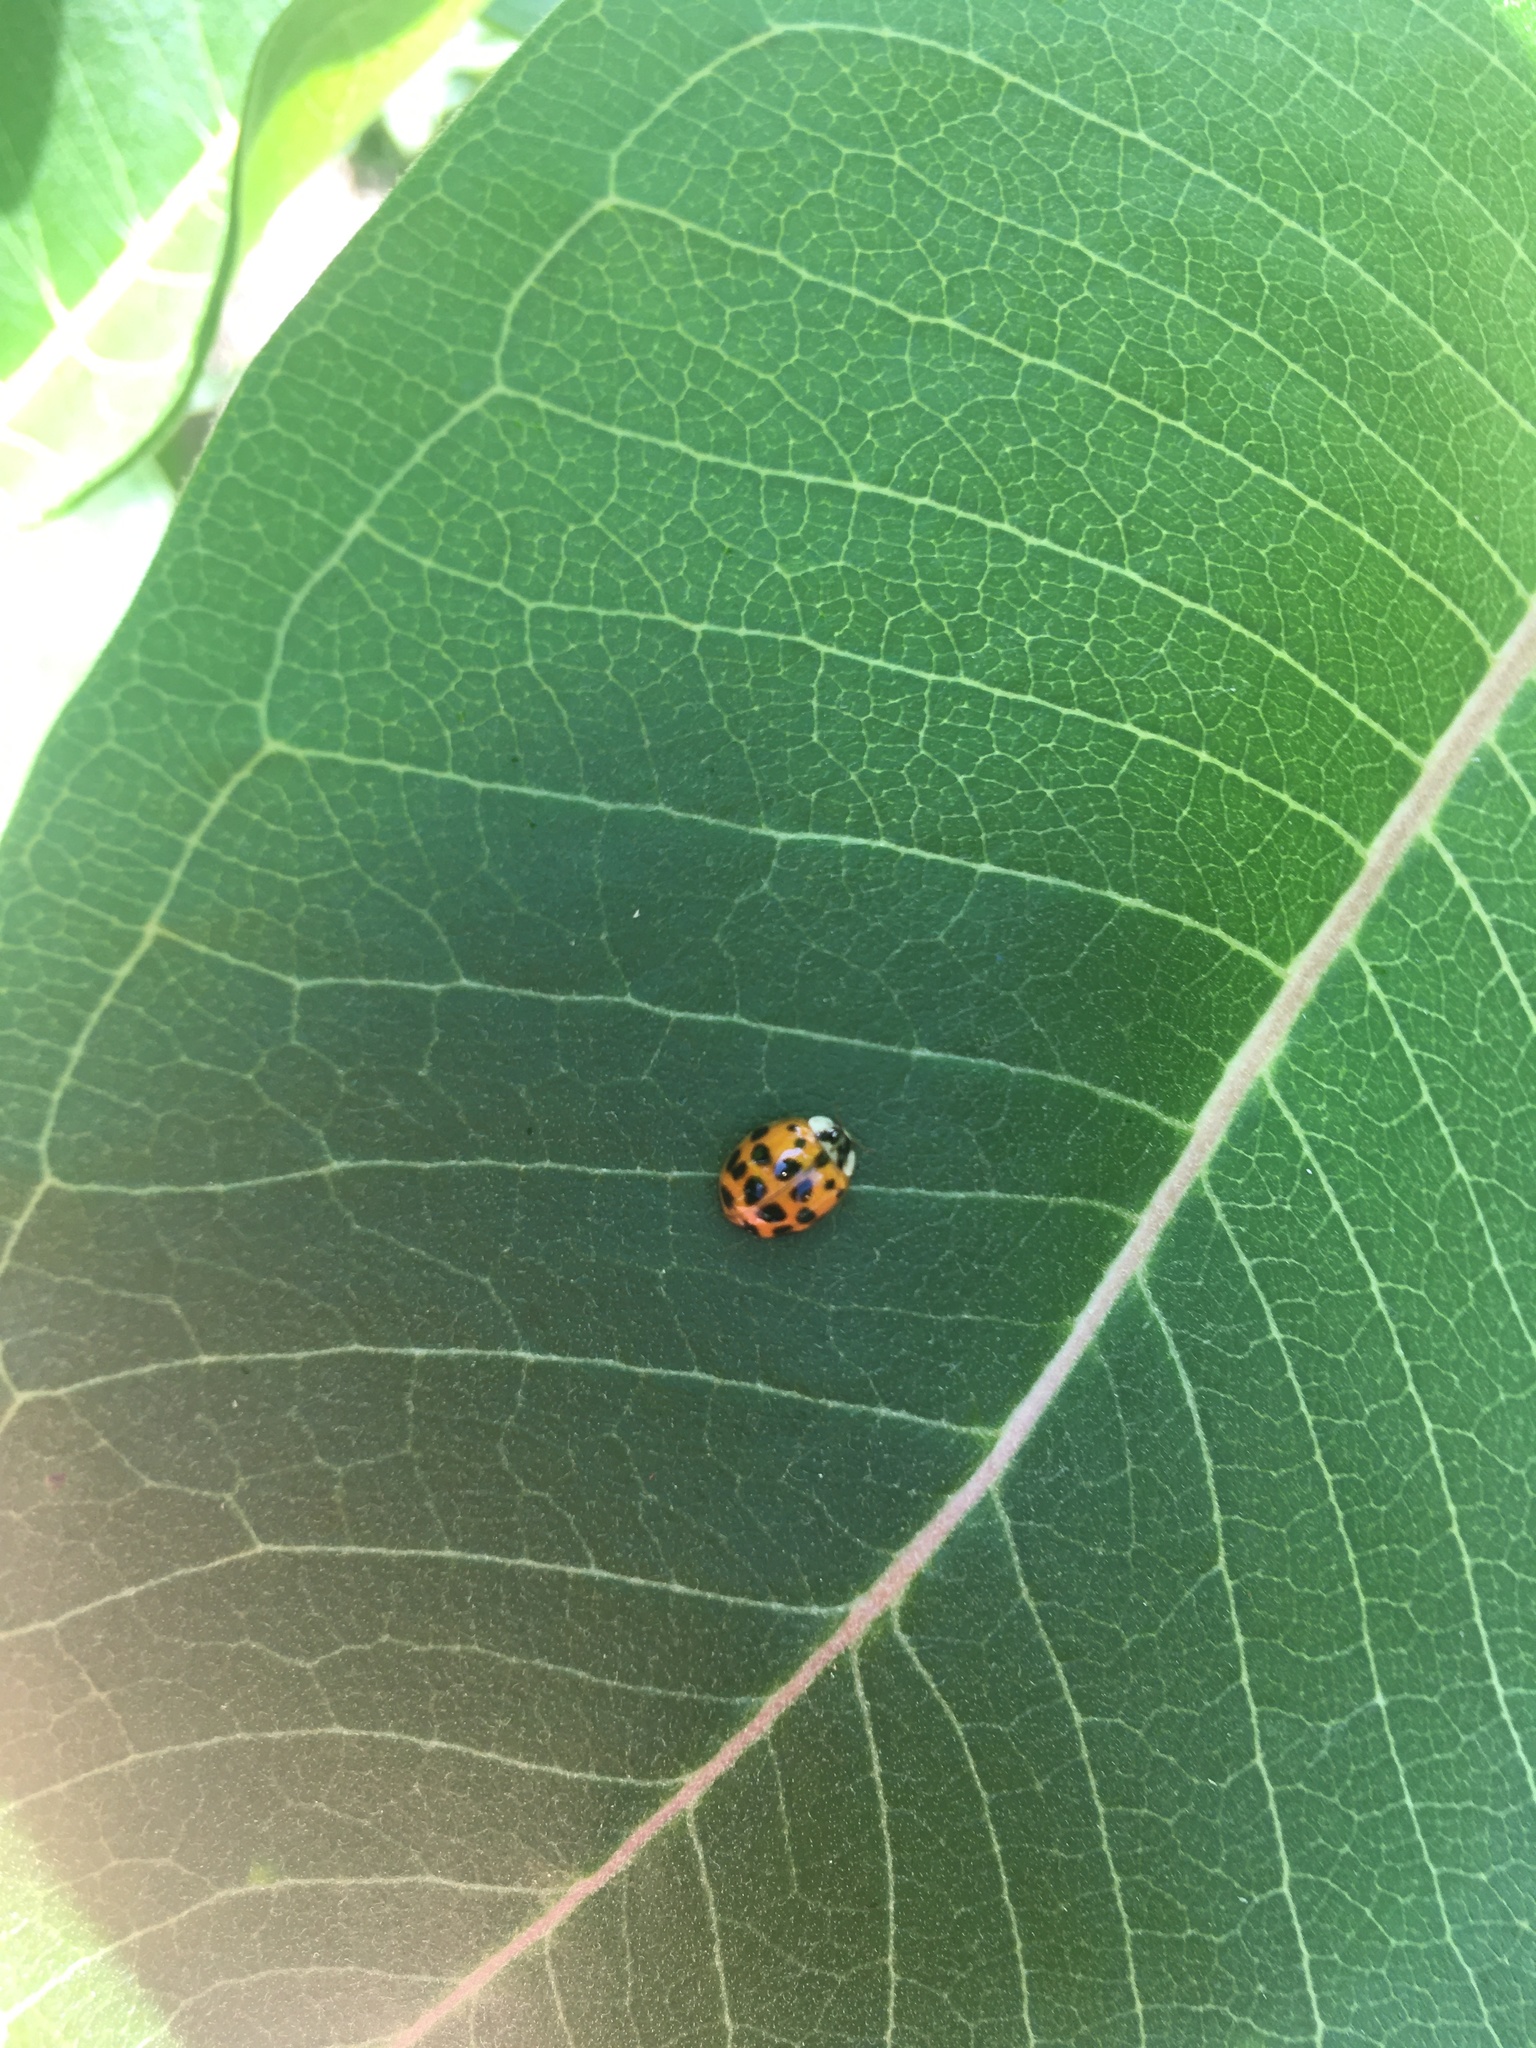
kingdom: Animalia
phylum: Arthropoda
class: Insecta
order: Coleoptera
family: Coccinellidae
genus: Harmonia
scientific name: Harmonia axyridis
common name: Harlequin ladybird
